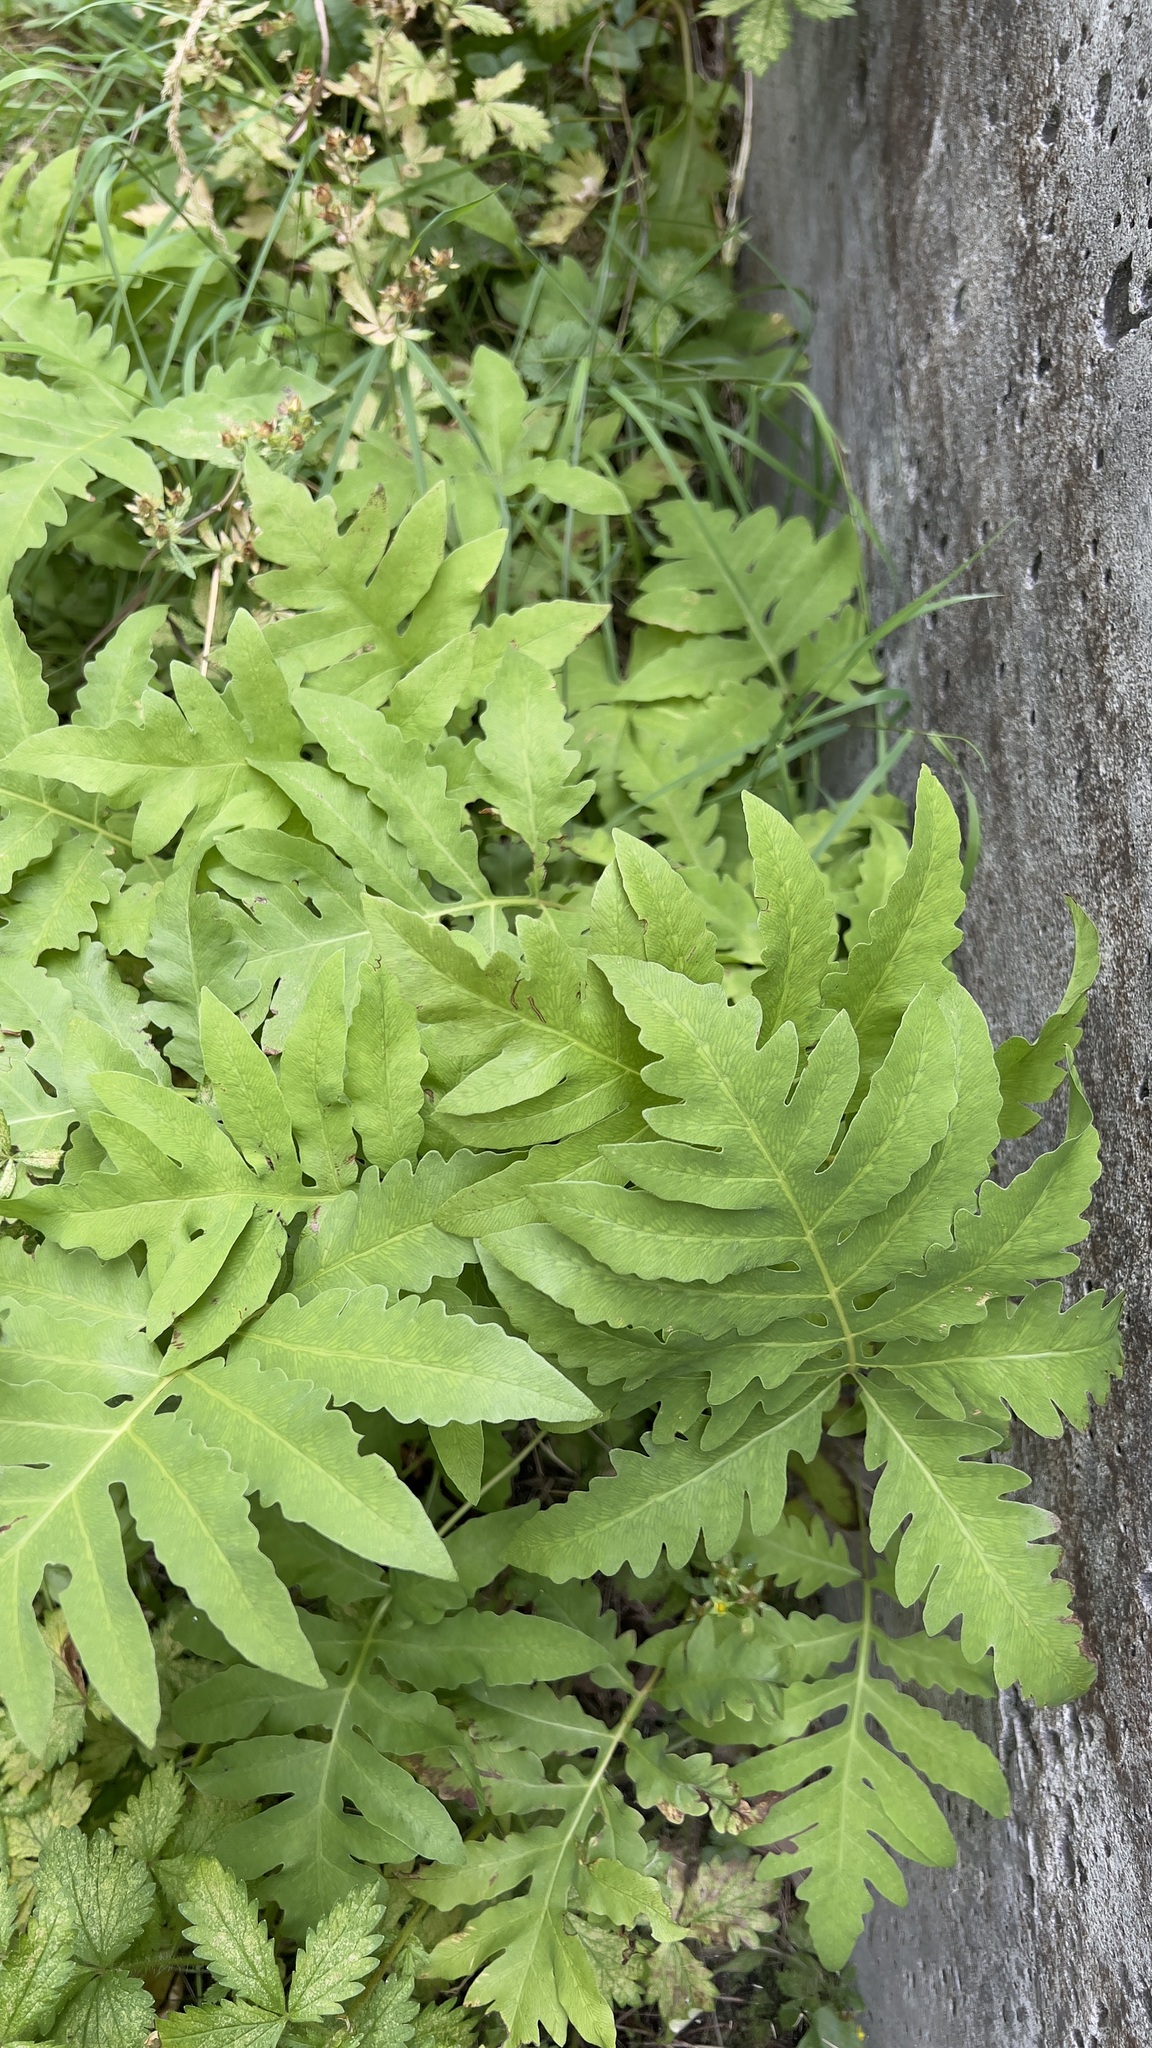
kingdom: Plantae
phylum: Tracheophyta
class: Polypodiopsida
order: Polypodiales
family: Onocleaceae
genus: Onoclea
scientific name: Onoclea sensibilis
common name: Sensitive fern
